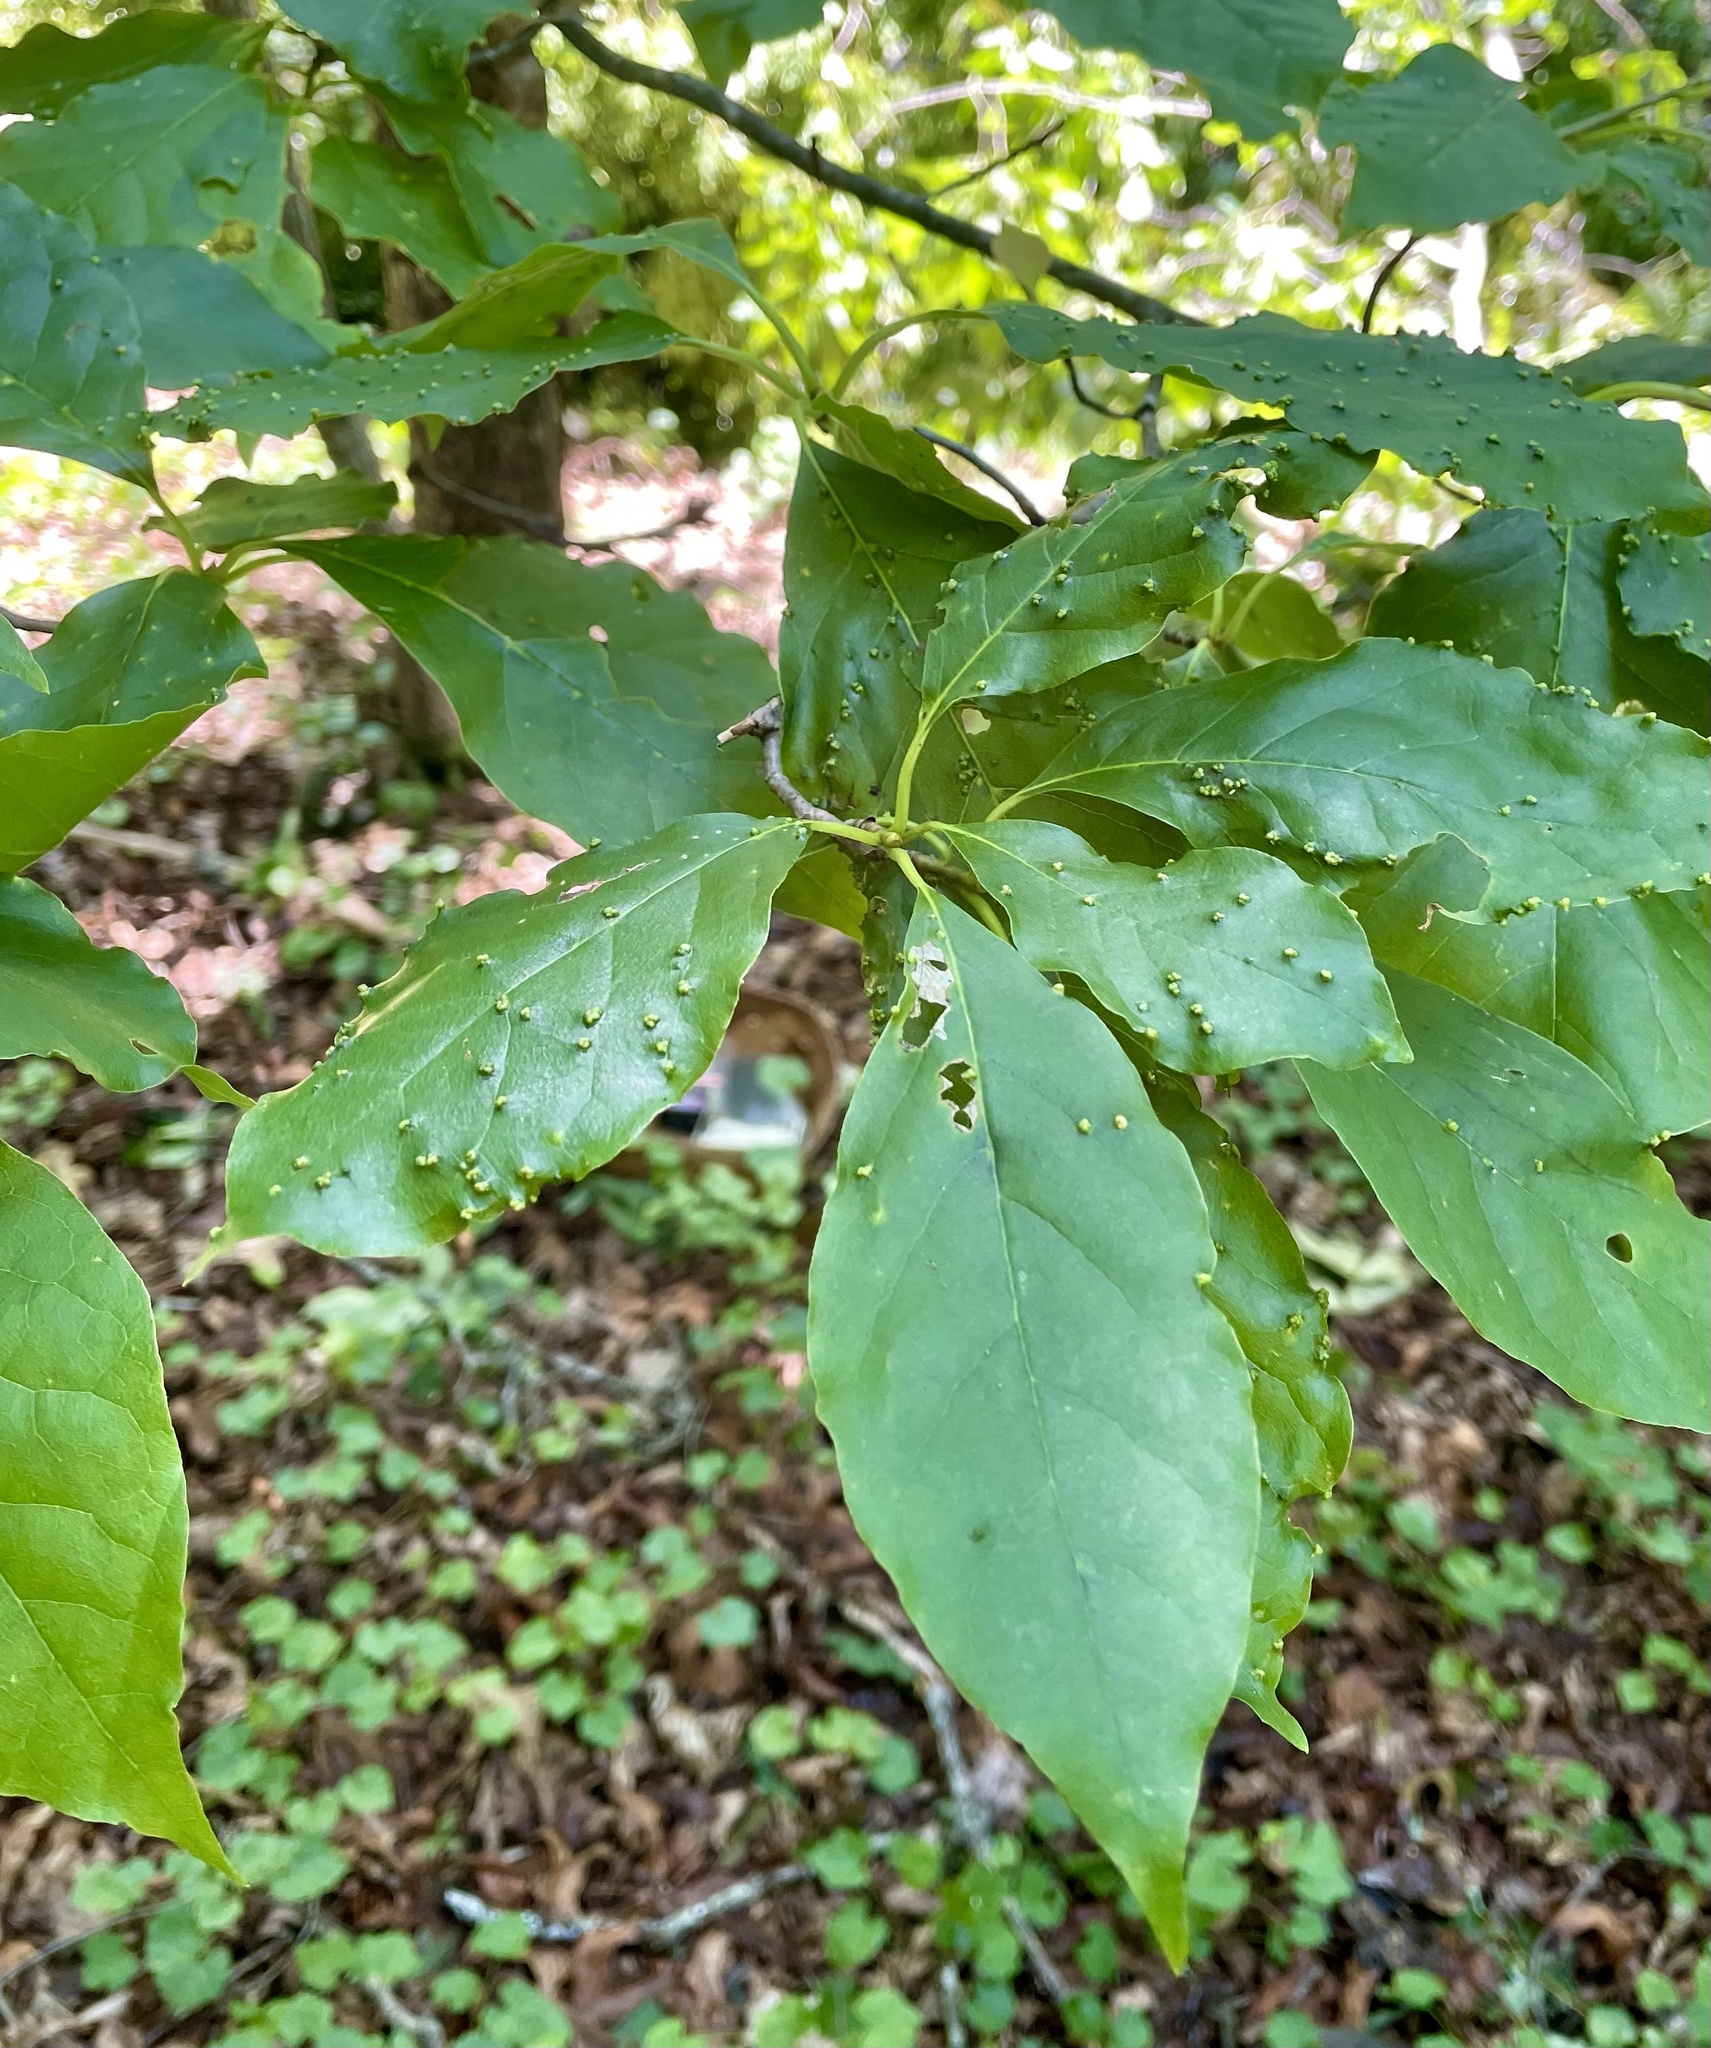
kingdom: Animalia
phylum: Arthropoda
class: Arachnida
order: Trombidiformes
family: Eriophyidae
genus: Aceria
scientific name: Aceria
